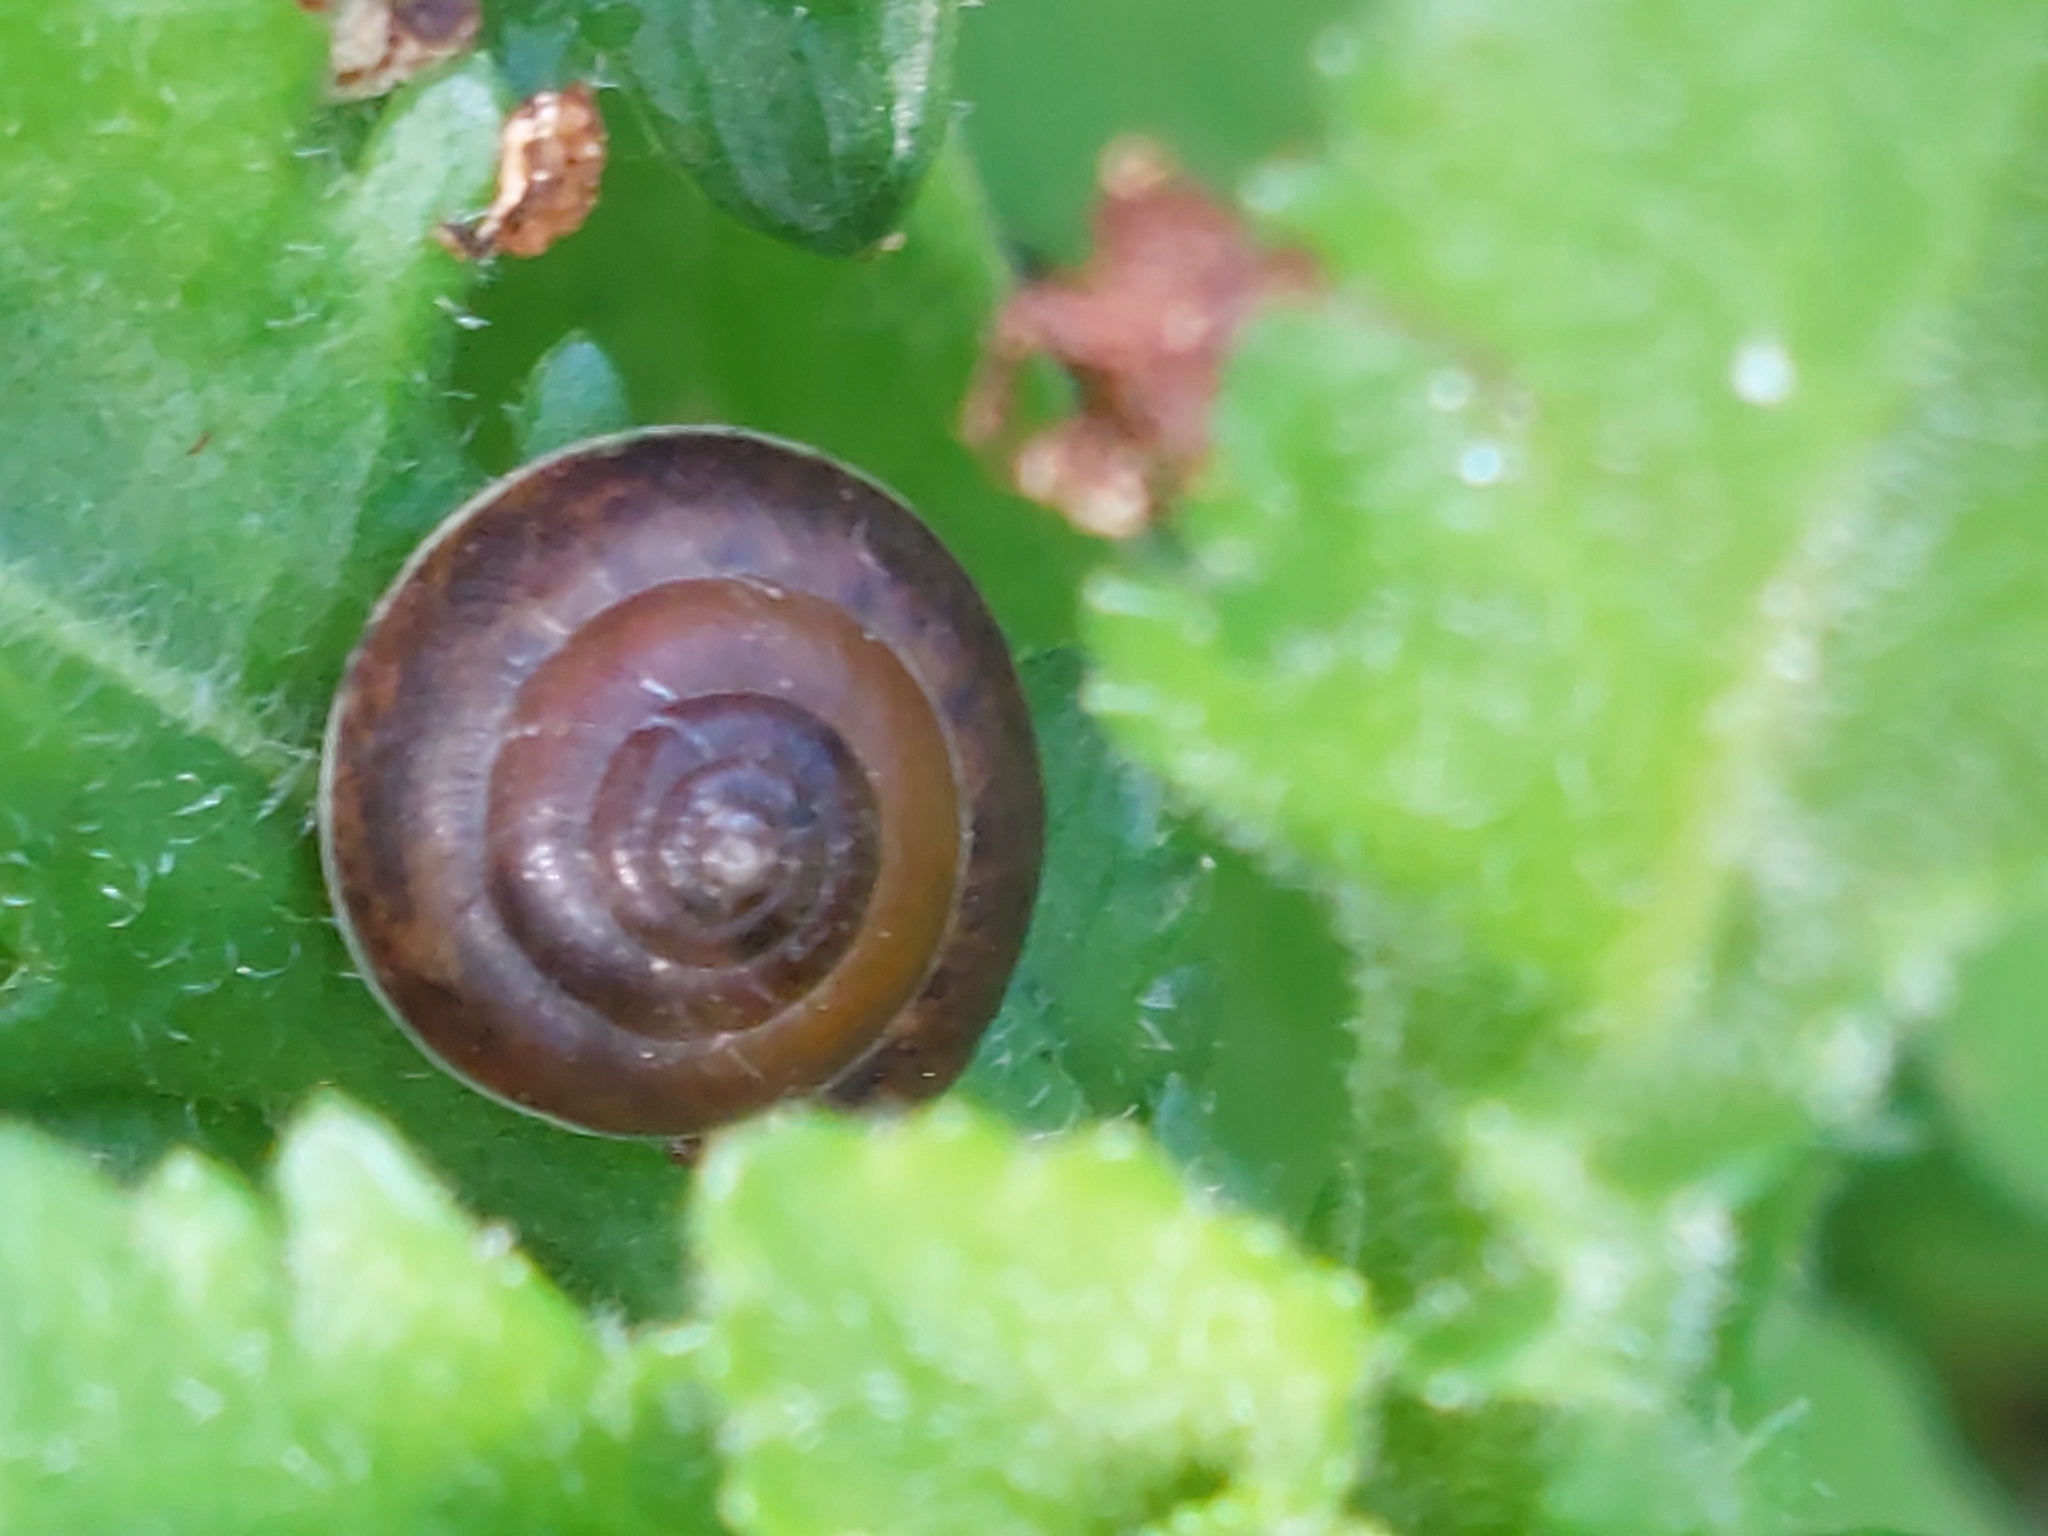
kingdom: Animalia
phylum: Mollusca
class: Gastropoda
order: Stylommatophora
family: Hygromiidae
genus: Hygromia
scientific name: Hygromia cinctella
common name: Girdled snail
